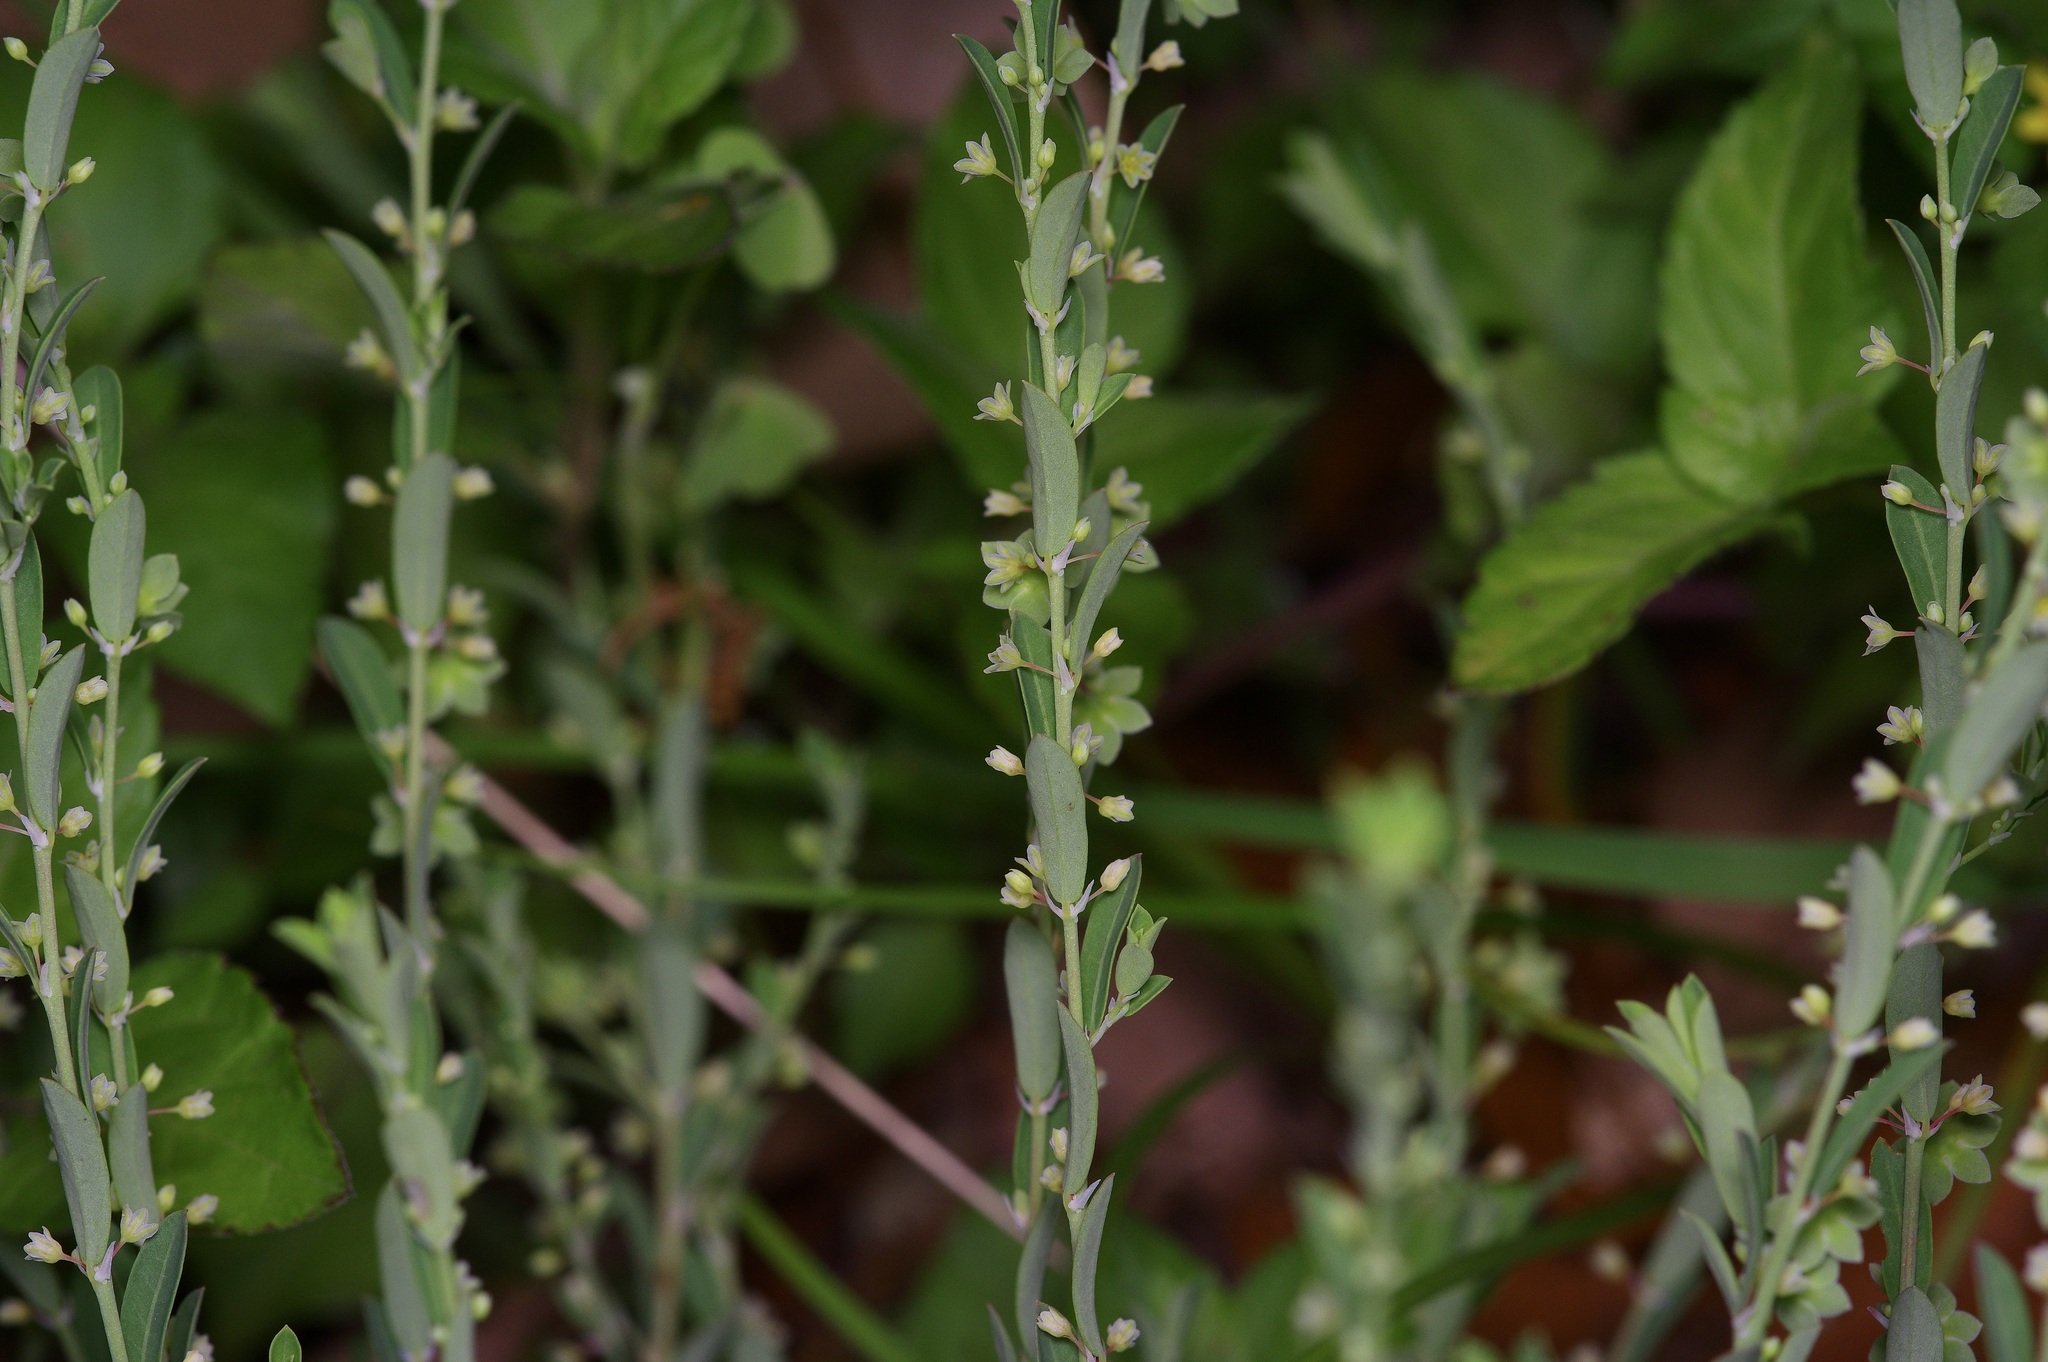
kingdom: Plantae
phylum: Tracheophyta
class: Magnoliopsida
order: Malpighiales
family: Phyllanthaceae
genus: Phyllanthus
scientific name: Phyllanthus polygonoides
